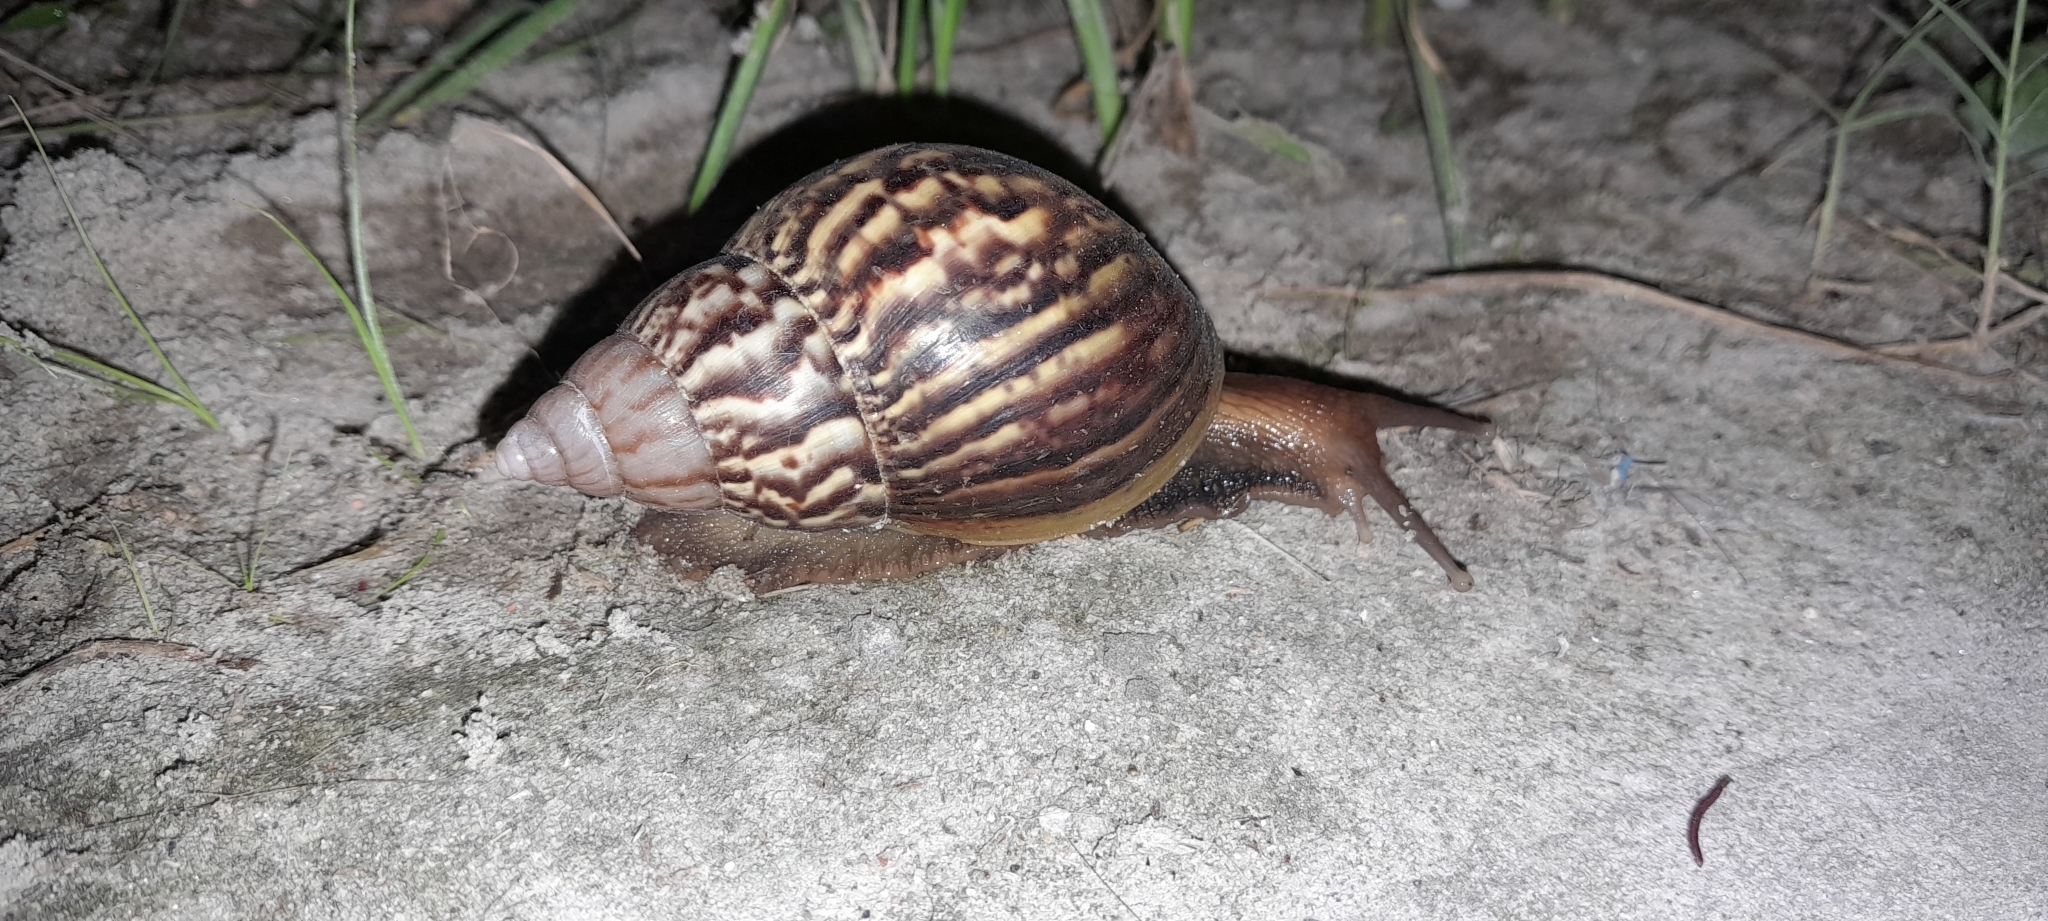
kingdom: Animalia
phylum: Mollusca
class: Gastropoda
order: Stylommatophora
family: Achatinidae
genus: Lissachatina
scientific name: Lissachatina fulica
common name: Giant african snail
